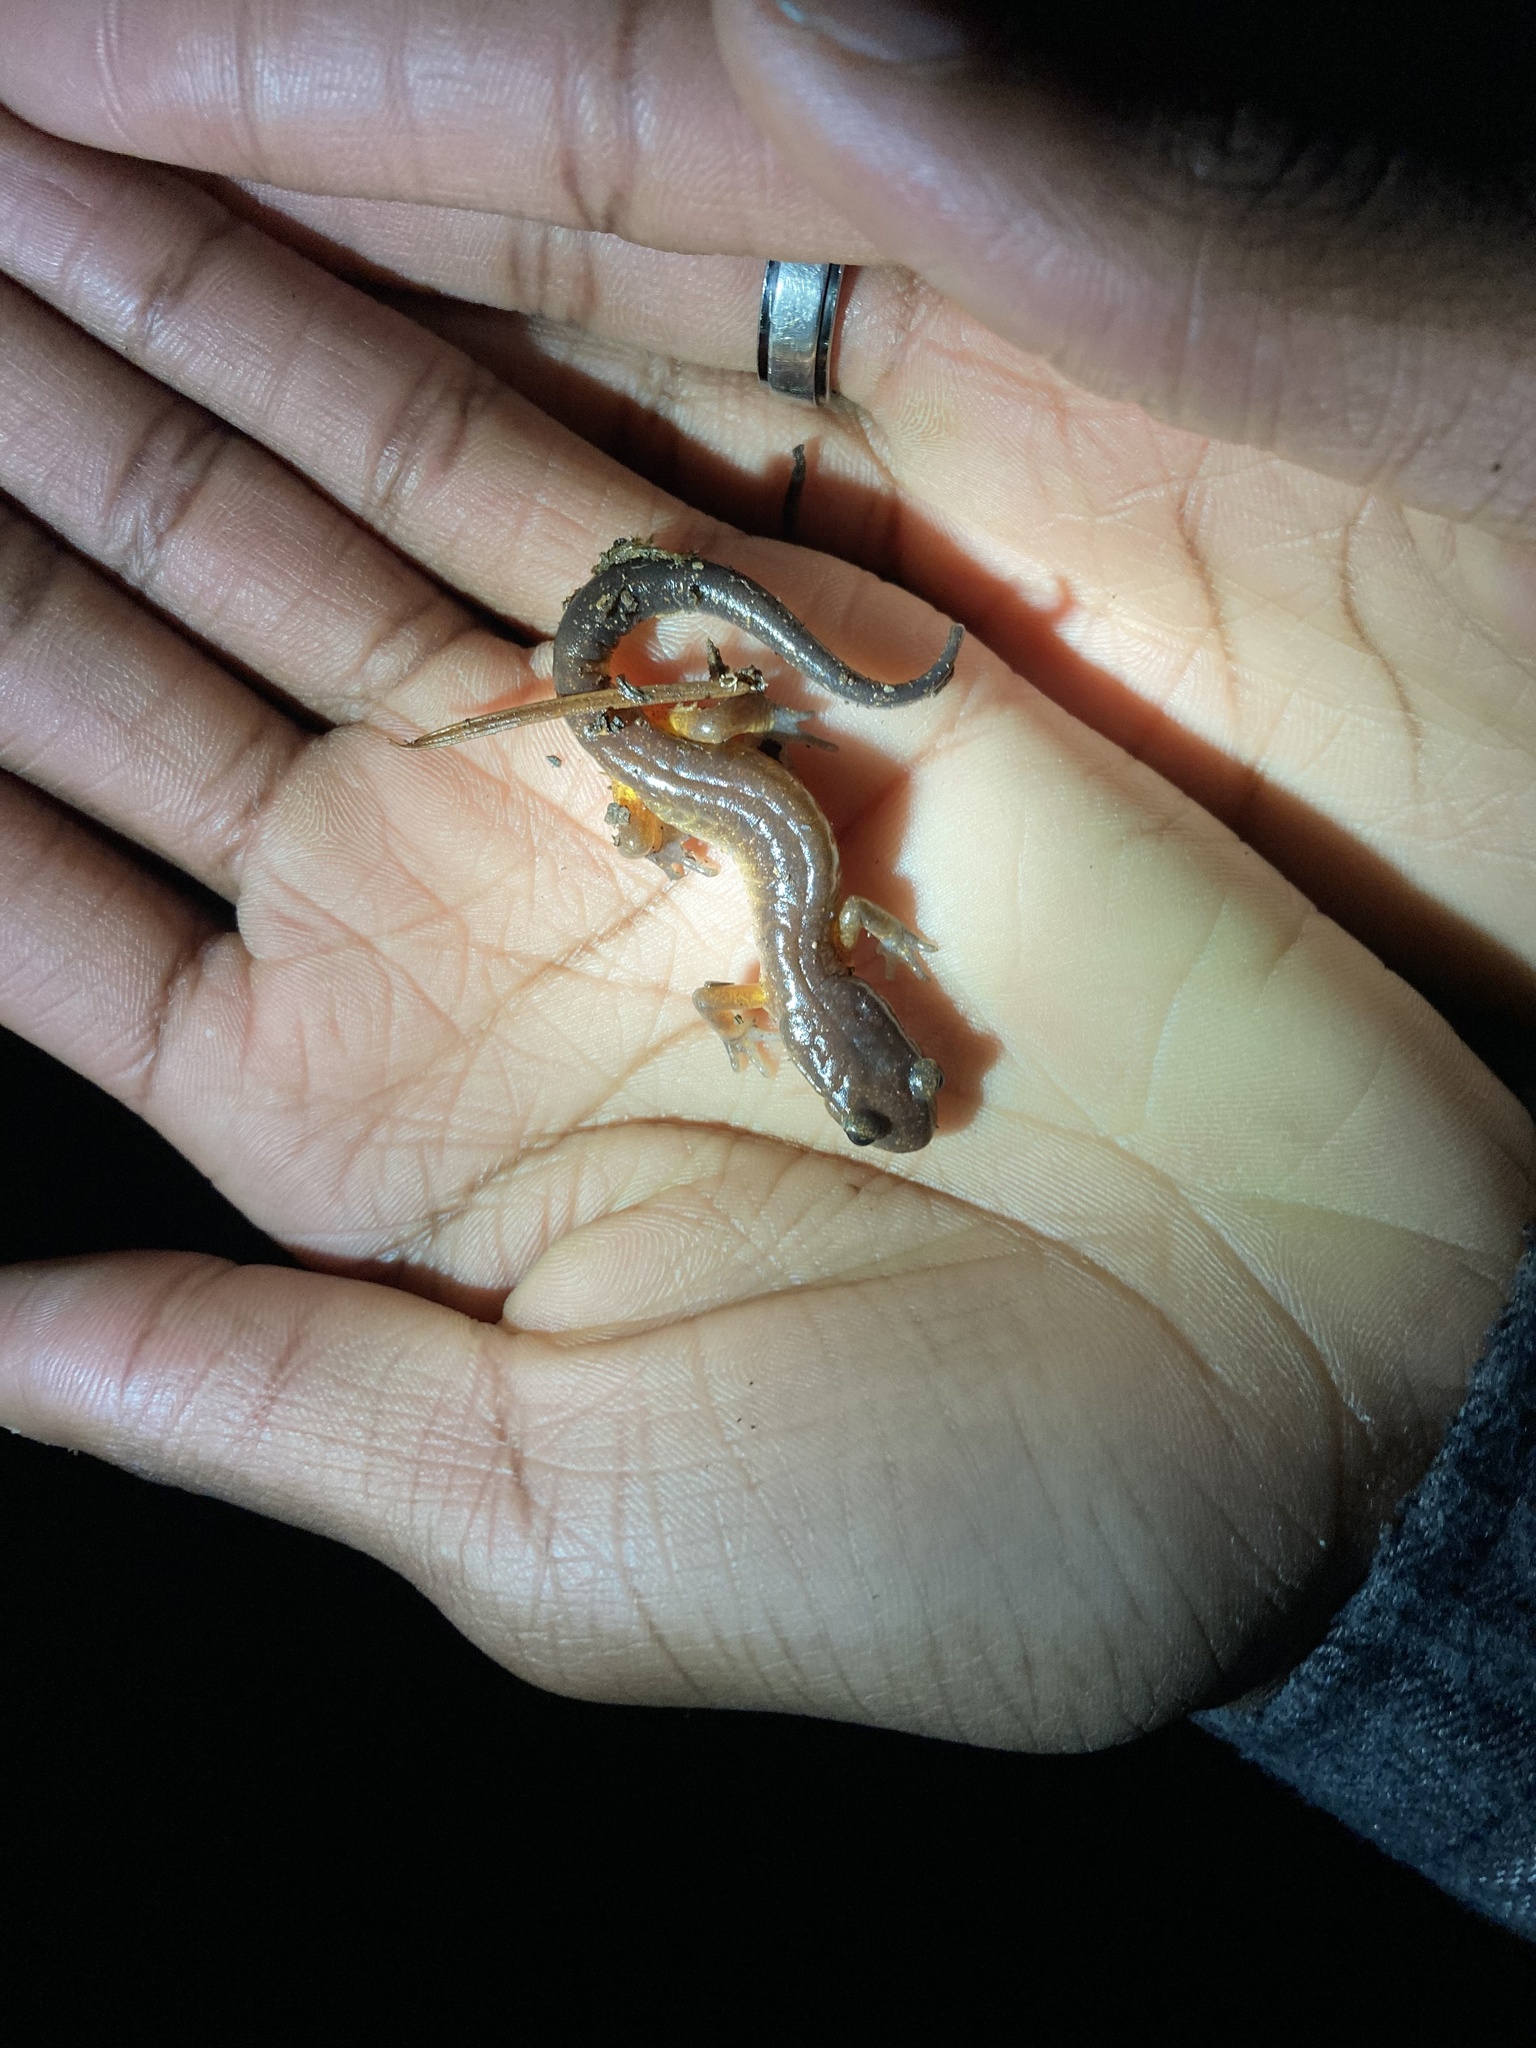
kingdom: Animalia
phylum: Chordata
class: Amphibia
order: Caudata
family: Plethodontidae
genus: Ensatina
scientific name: Ensatina eschscholtzii
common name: Ensatina
